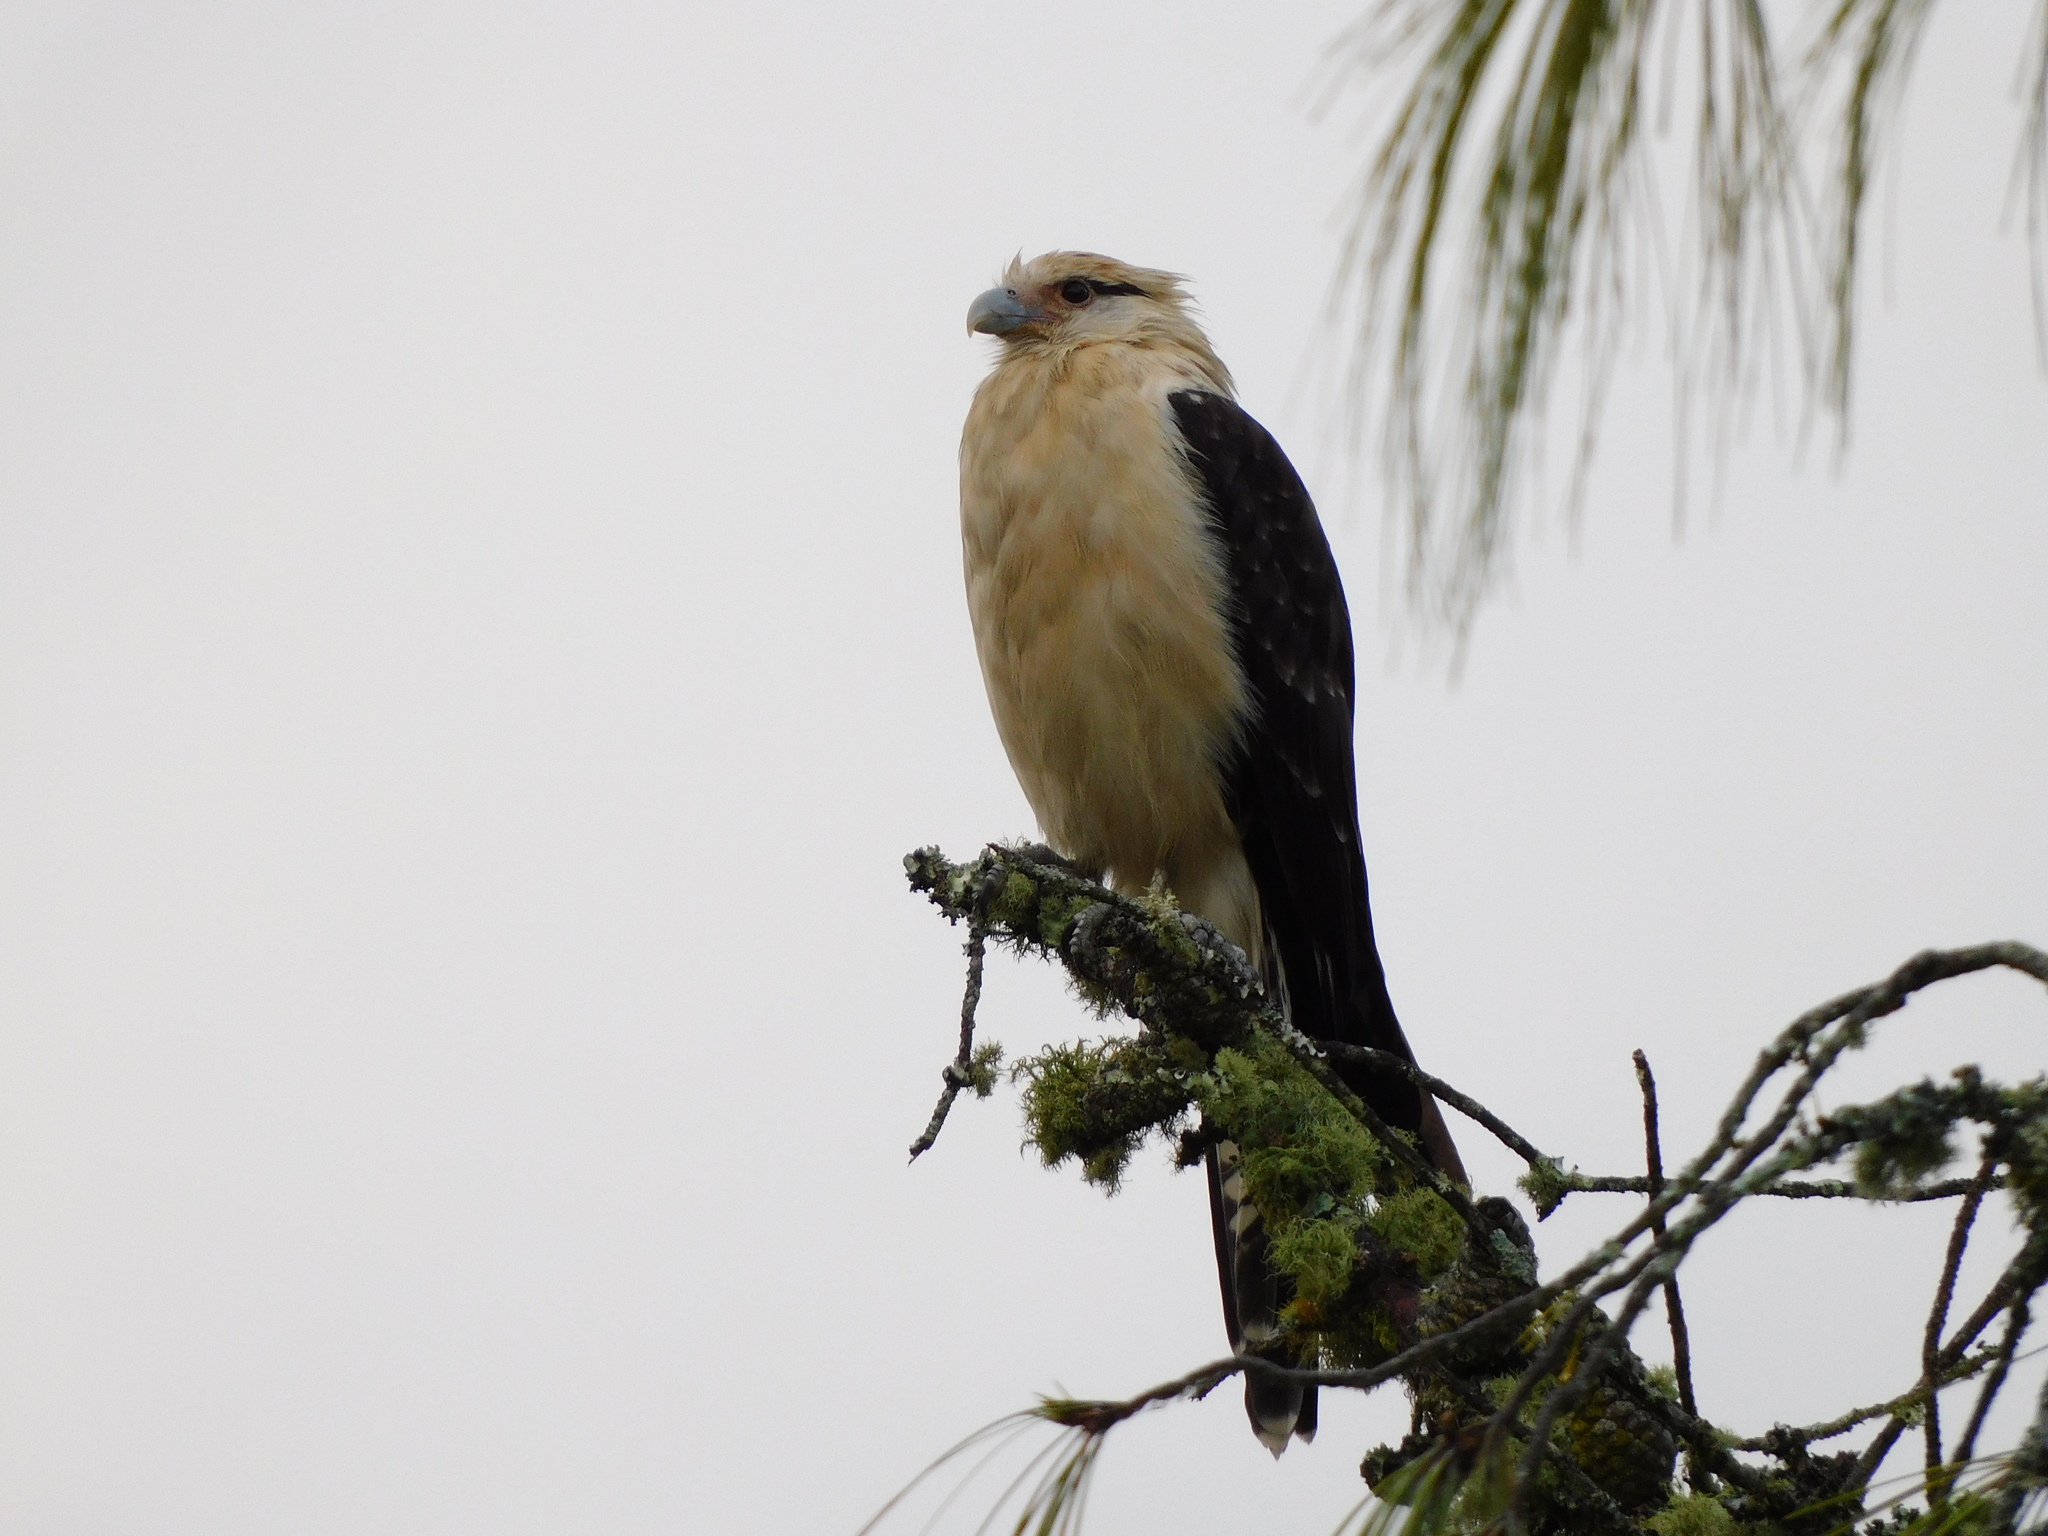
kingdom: Animalia
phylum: Chordata
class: Aves
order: Falconiformes
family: Falconidae
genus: Daptrius
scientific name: Daptrius
